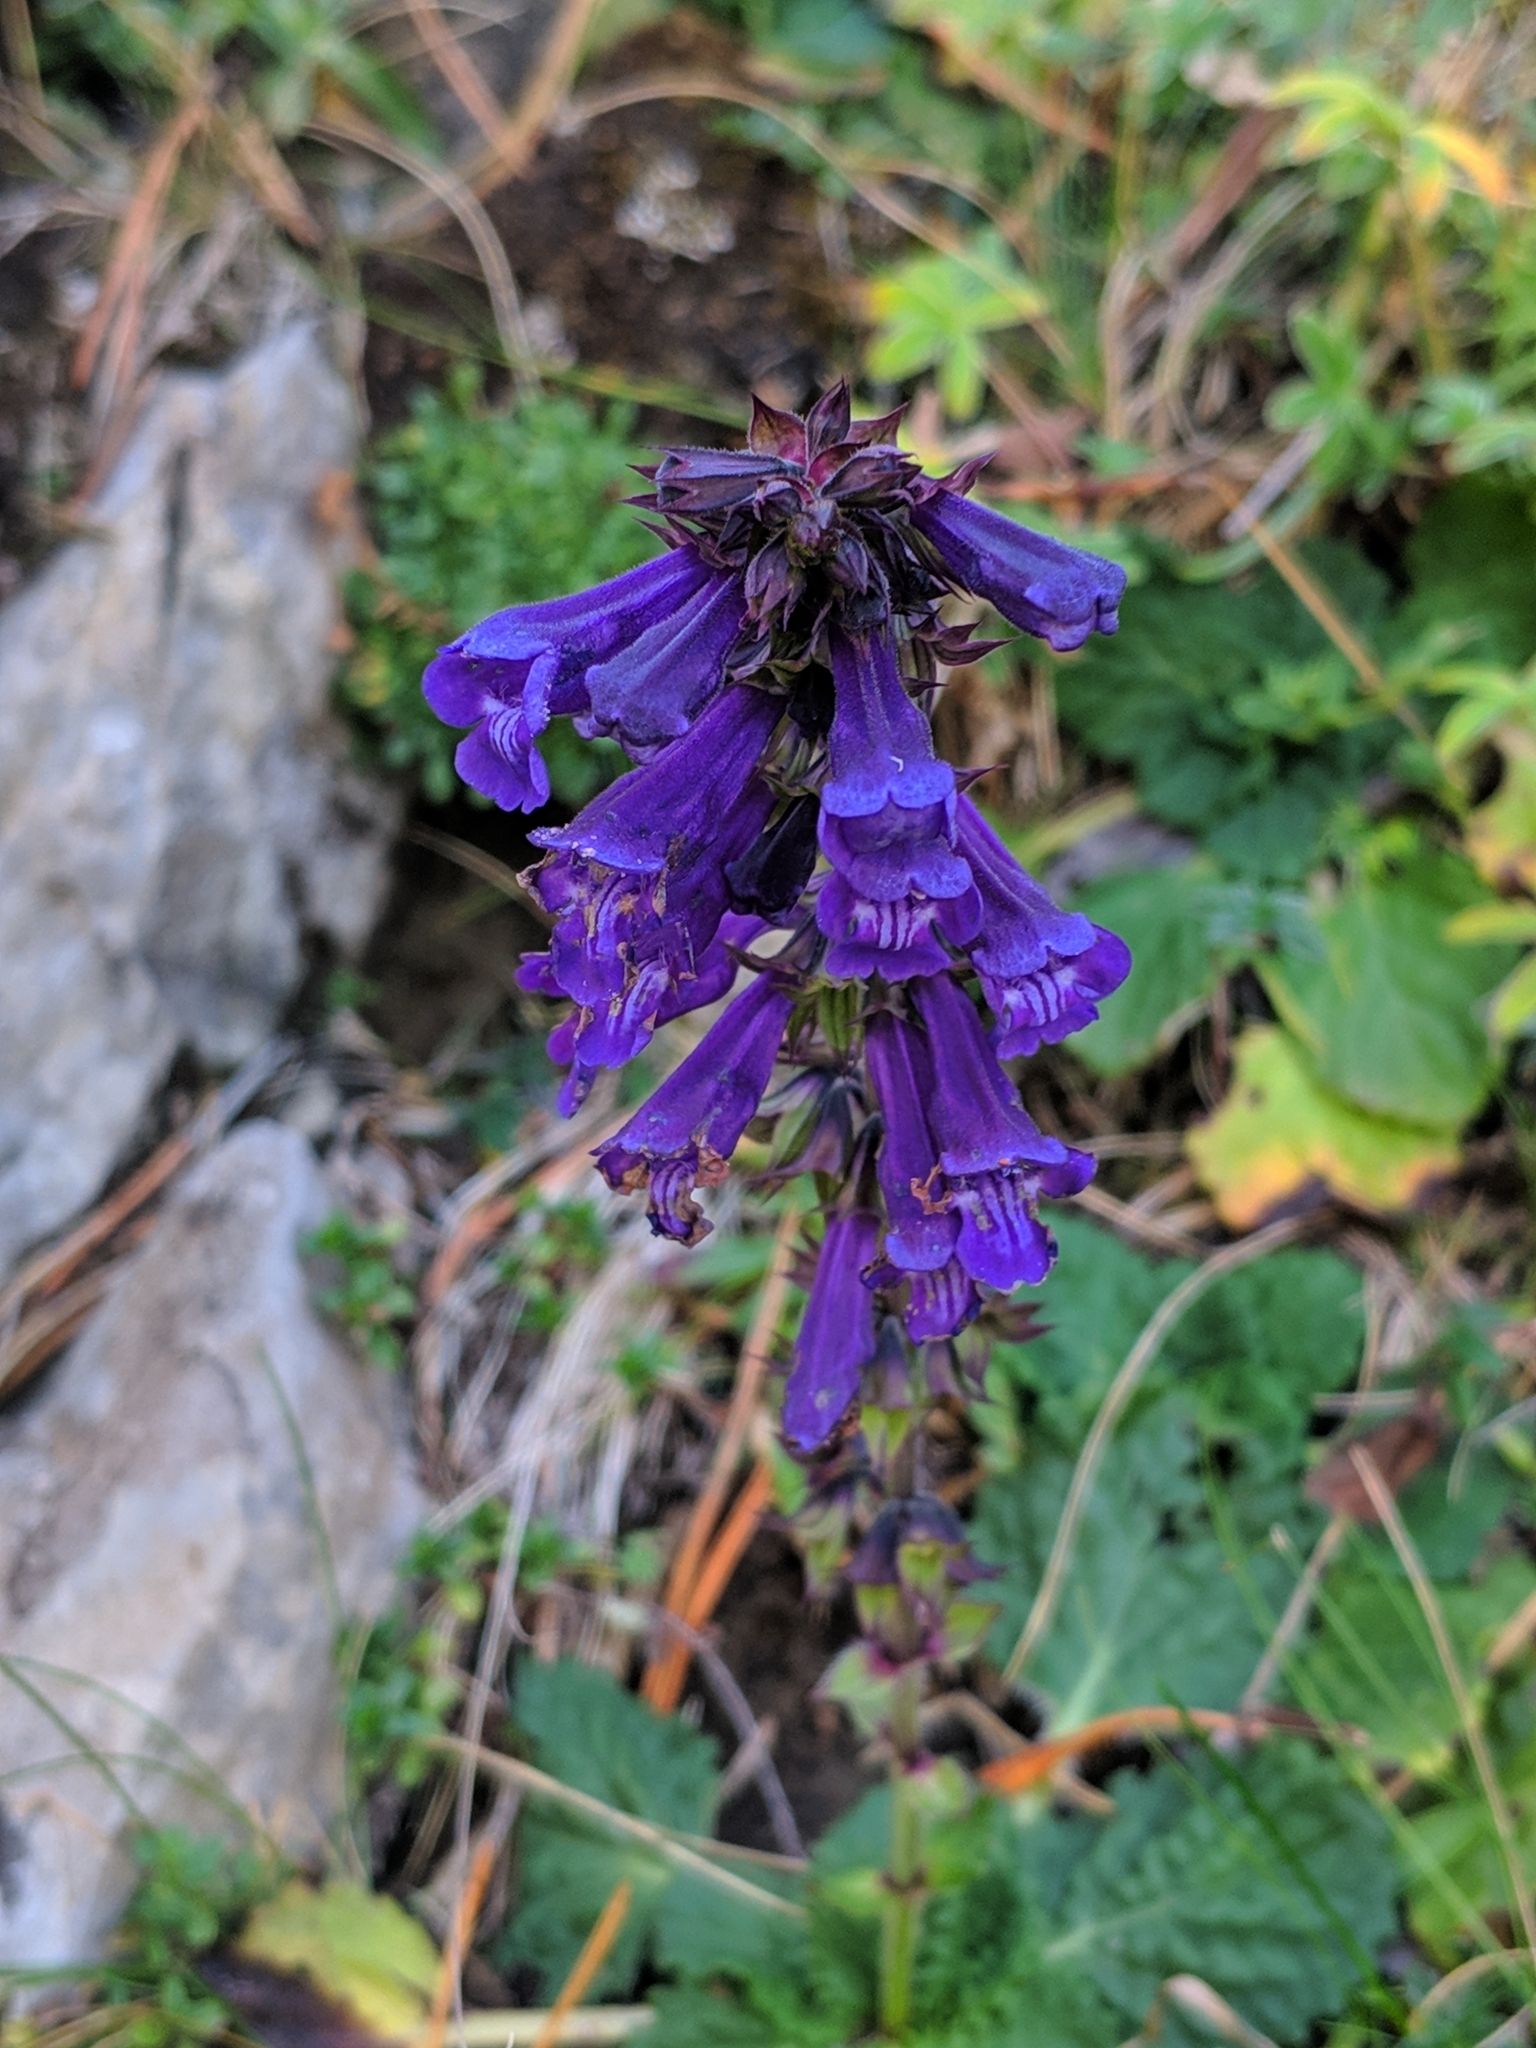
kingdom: Plantae
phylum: Tracheophyta
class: Magnoliopsida
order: Lamiales
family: Lamiaceae
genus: Horminum
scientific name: Horminum pyrenaicum
